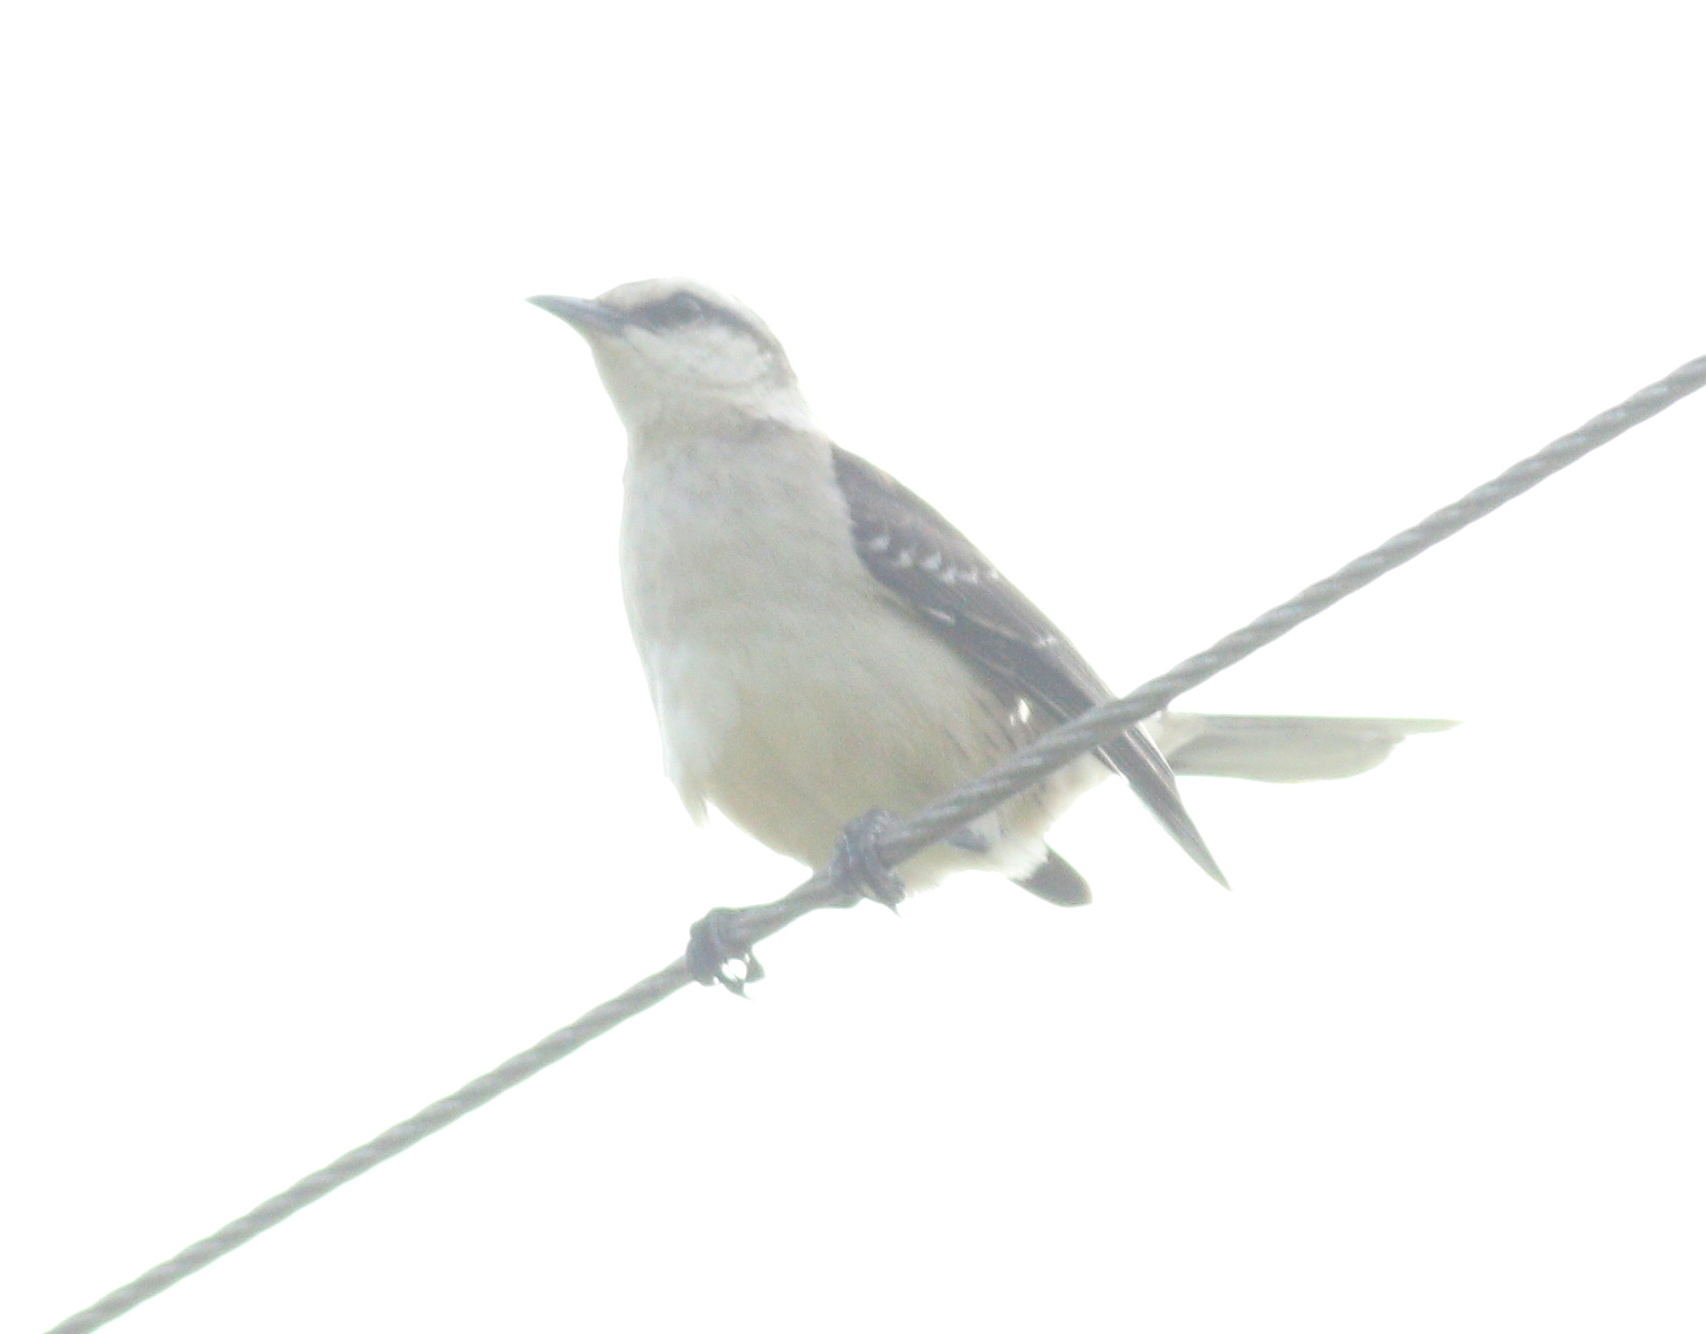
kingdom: Animalia
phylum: Chordata
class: Aves
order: Passeriformes
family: Mimidae
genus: Mimus
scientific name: Mimus saturninus
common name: Chalk-browed mockingbird
